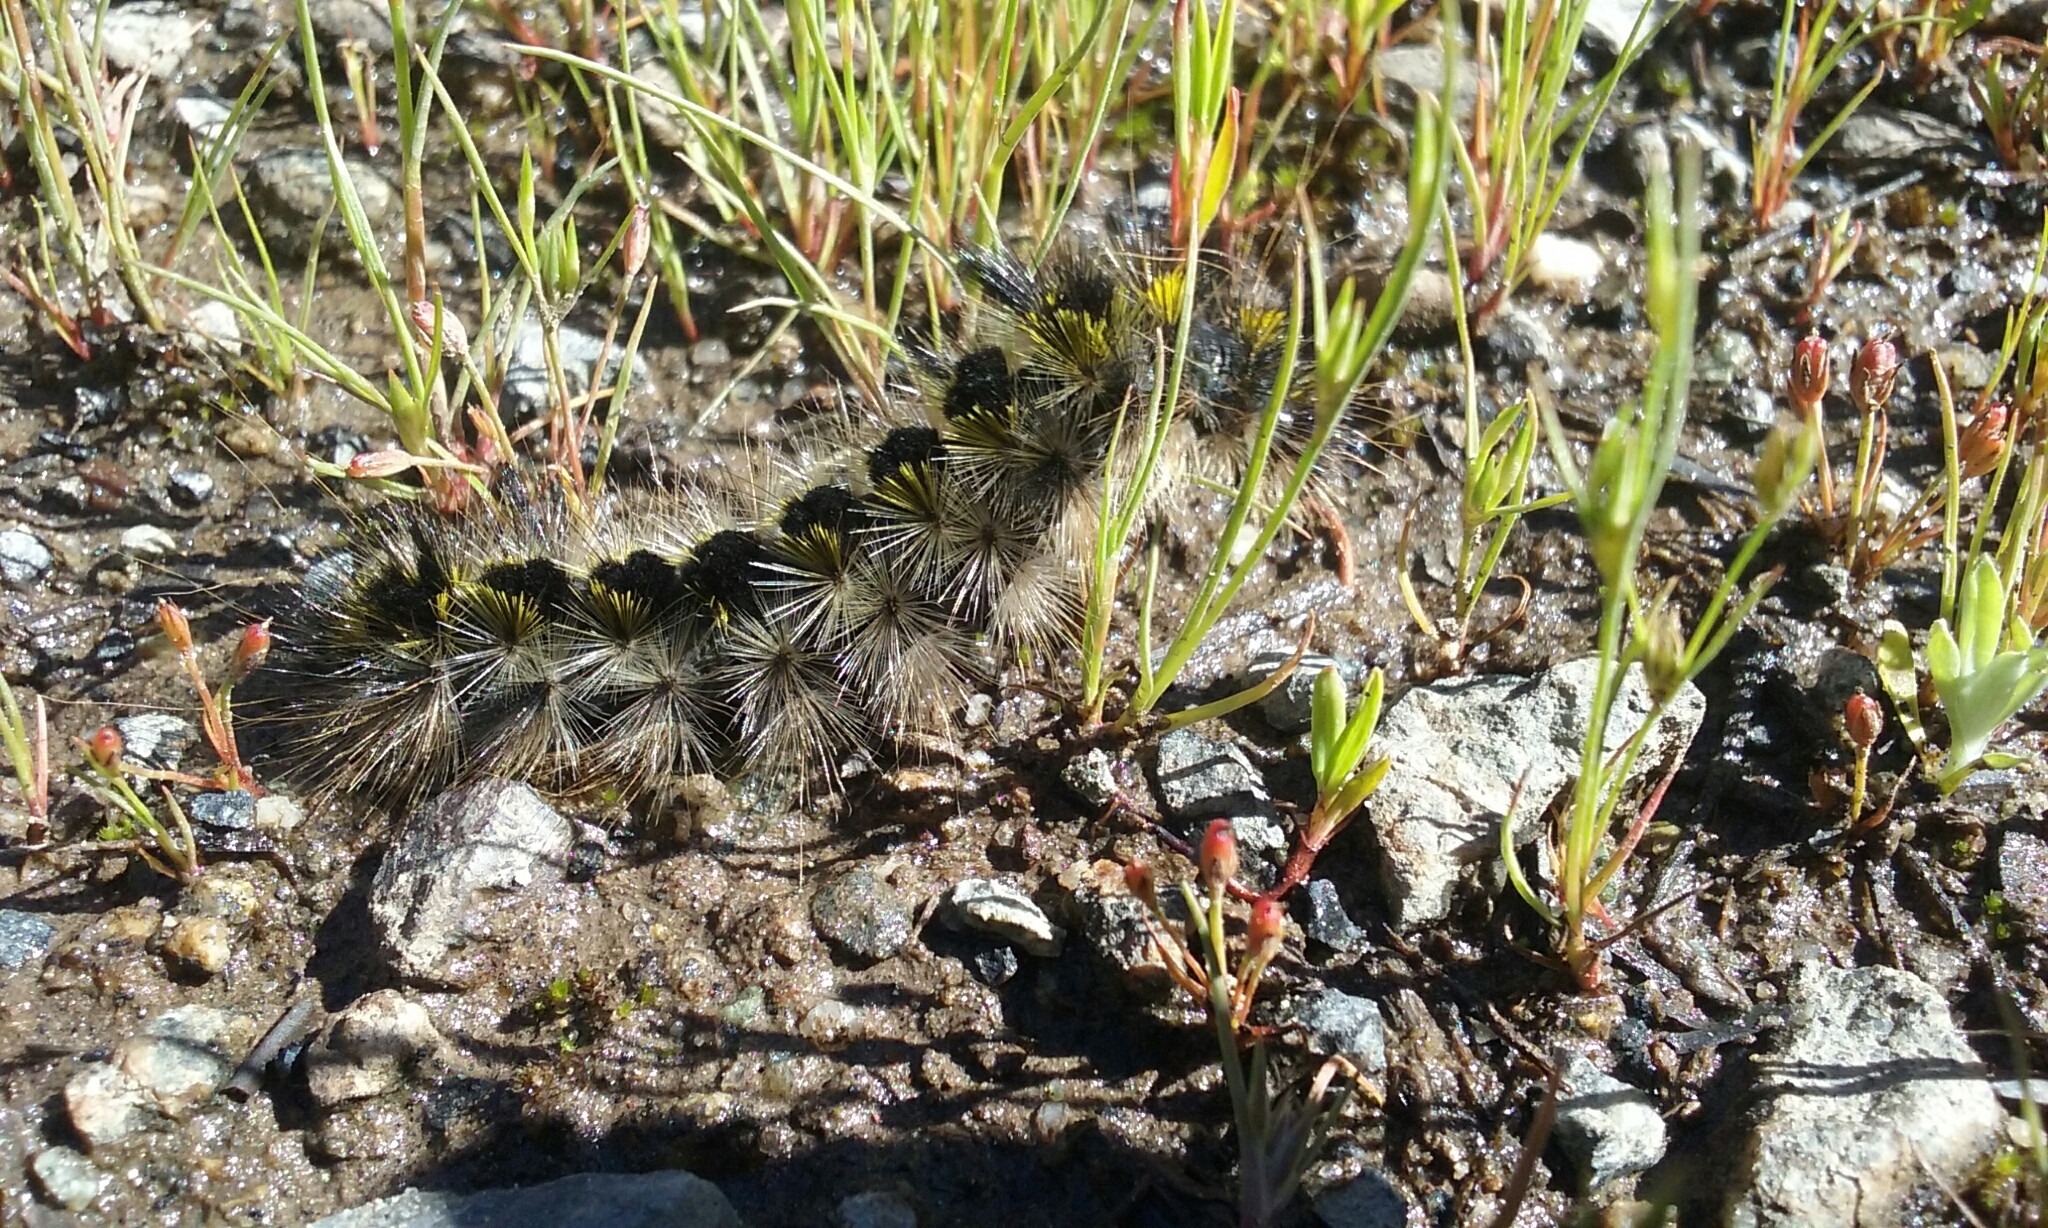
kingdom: Animalia
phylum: Arthropoda
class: Insecta
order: Lepidoptera
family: Erebidae
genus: Lophocampa
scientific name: Lophocampa argentata
